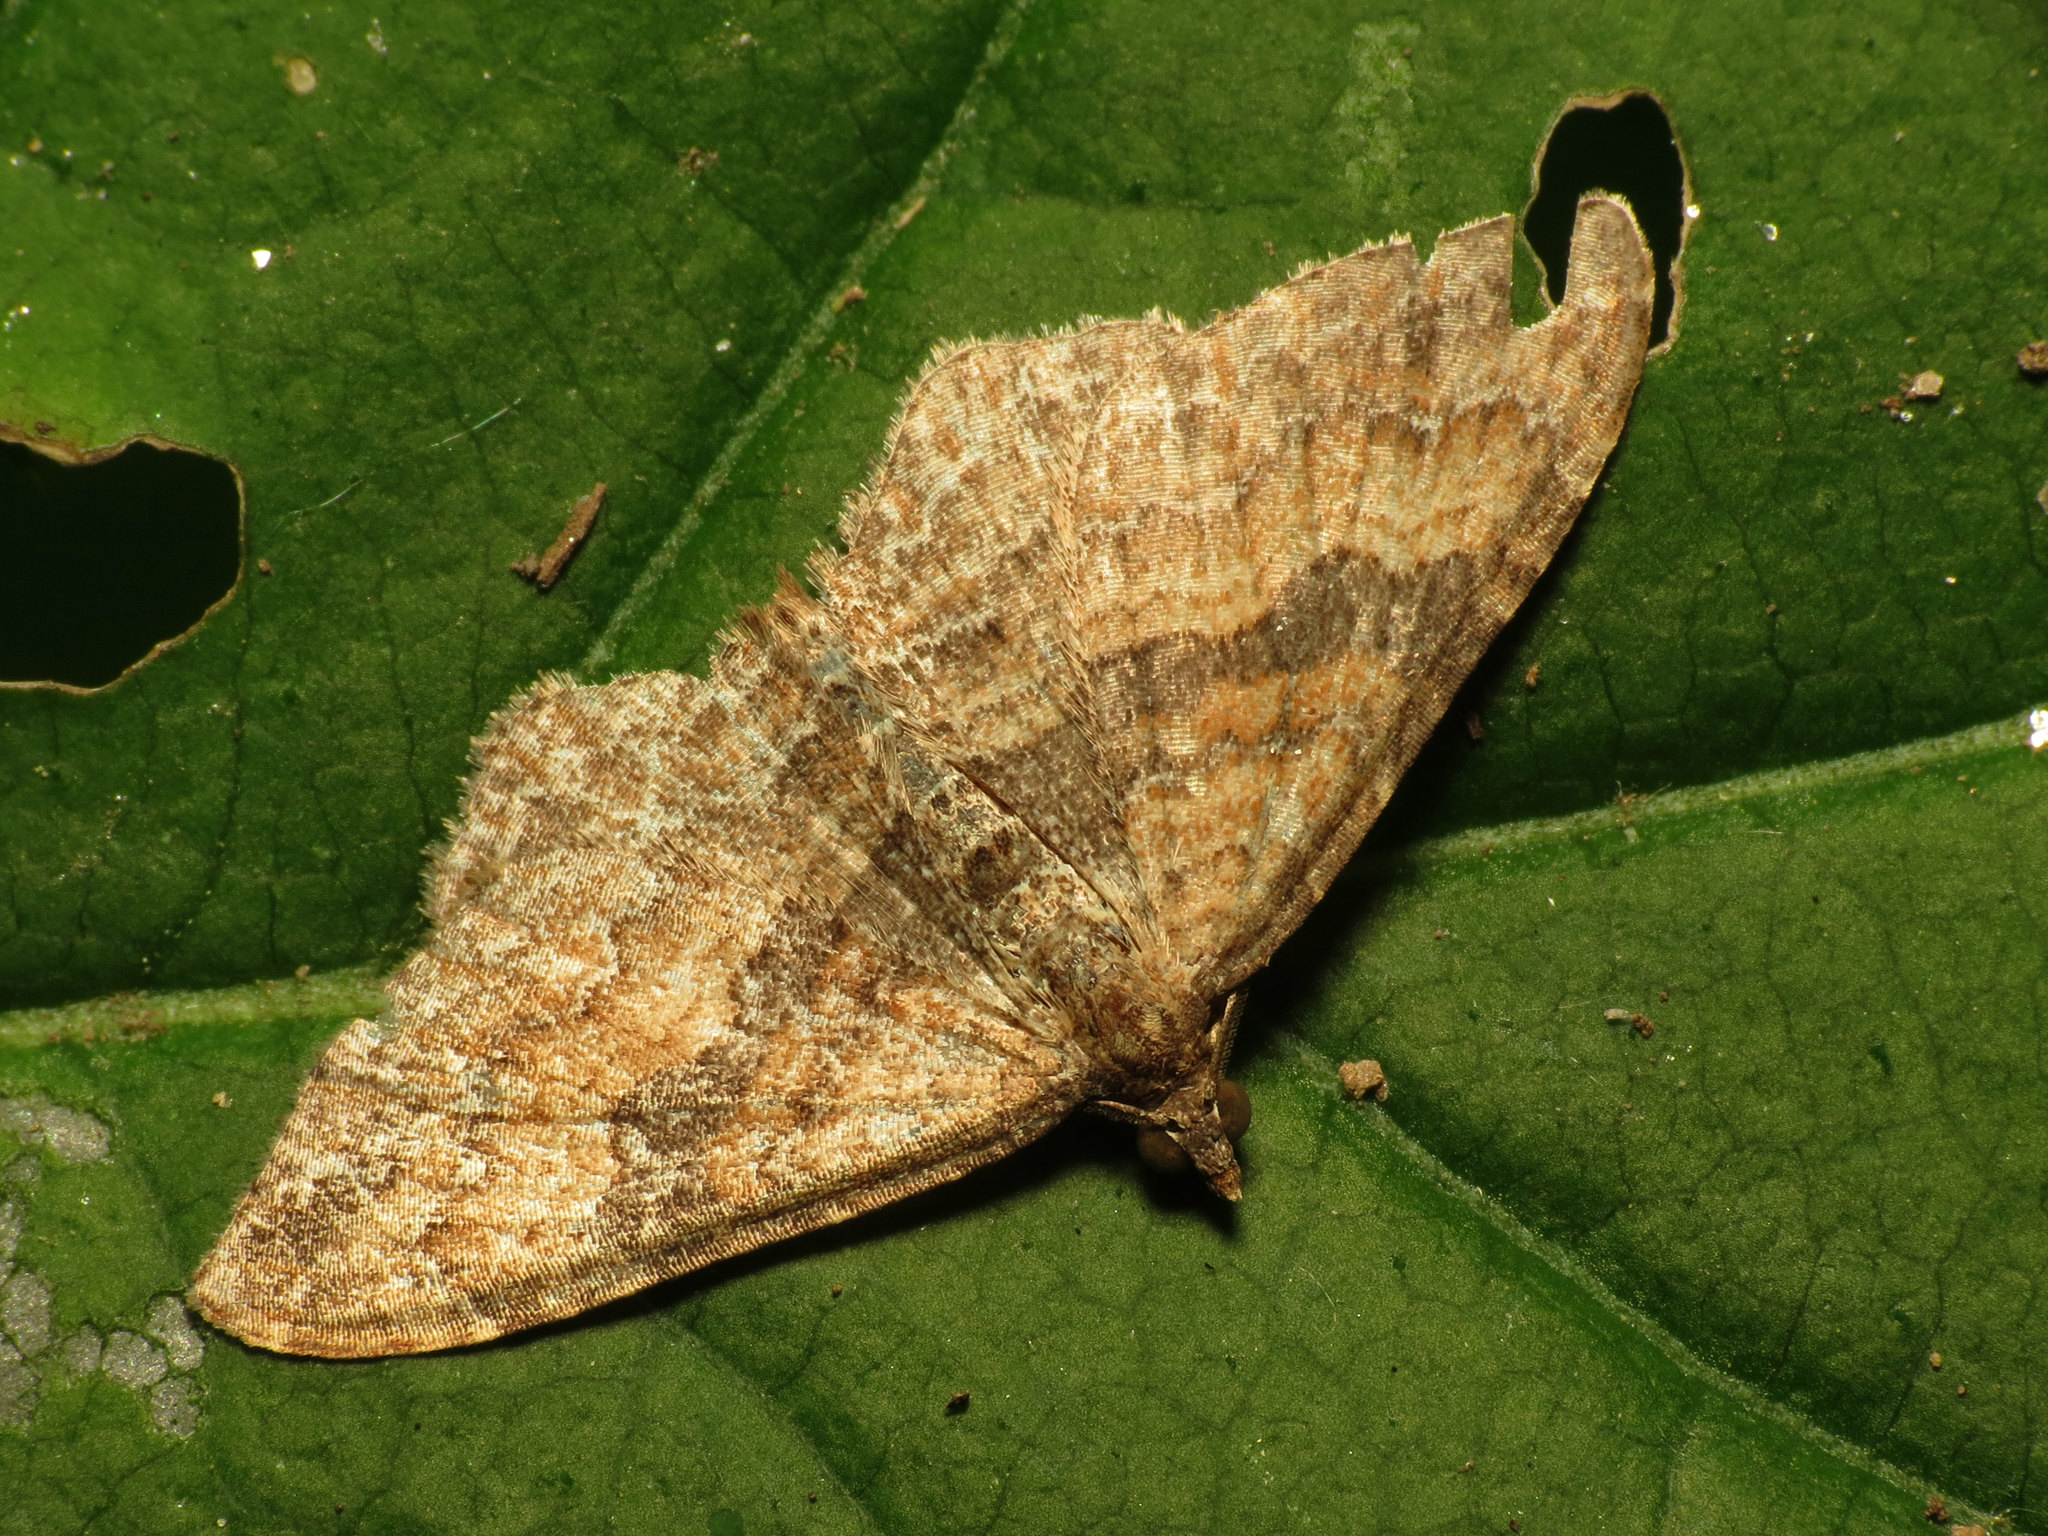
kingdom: Animalia
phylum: Arthropoda
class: Insecta
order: Lepidoptera
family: Geometridae
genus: Orthonama
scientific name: Orthonama obstipata
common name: The gem
